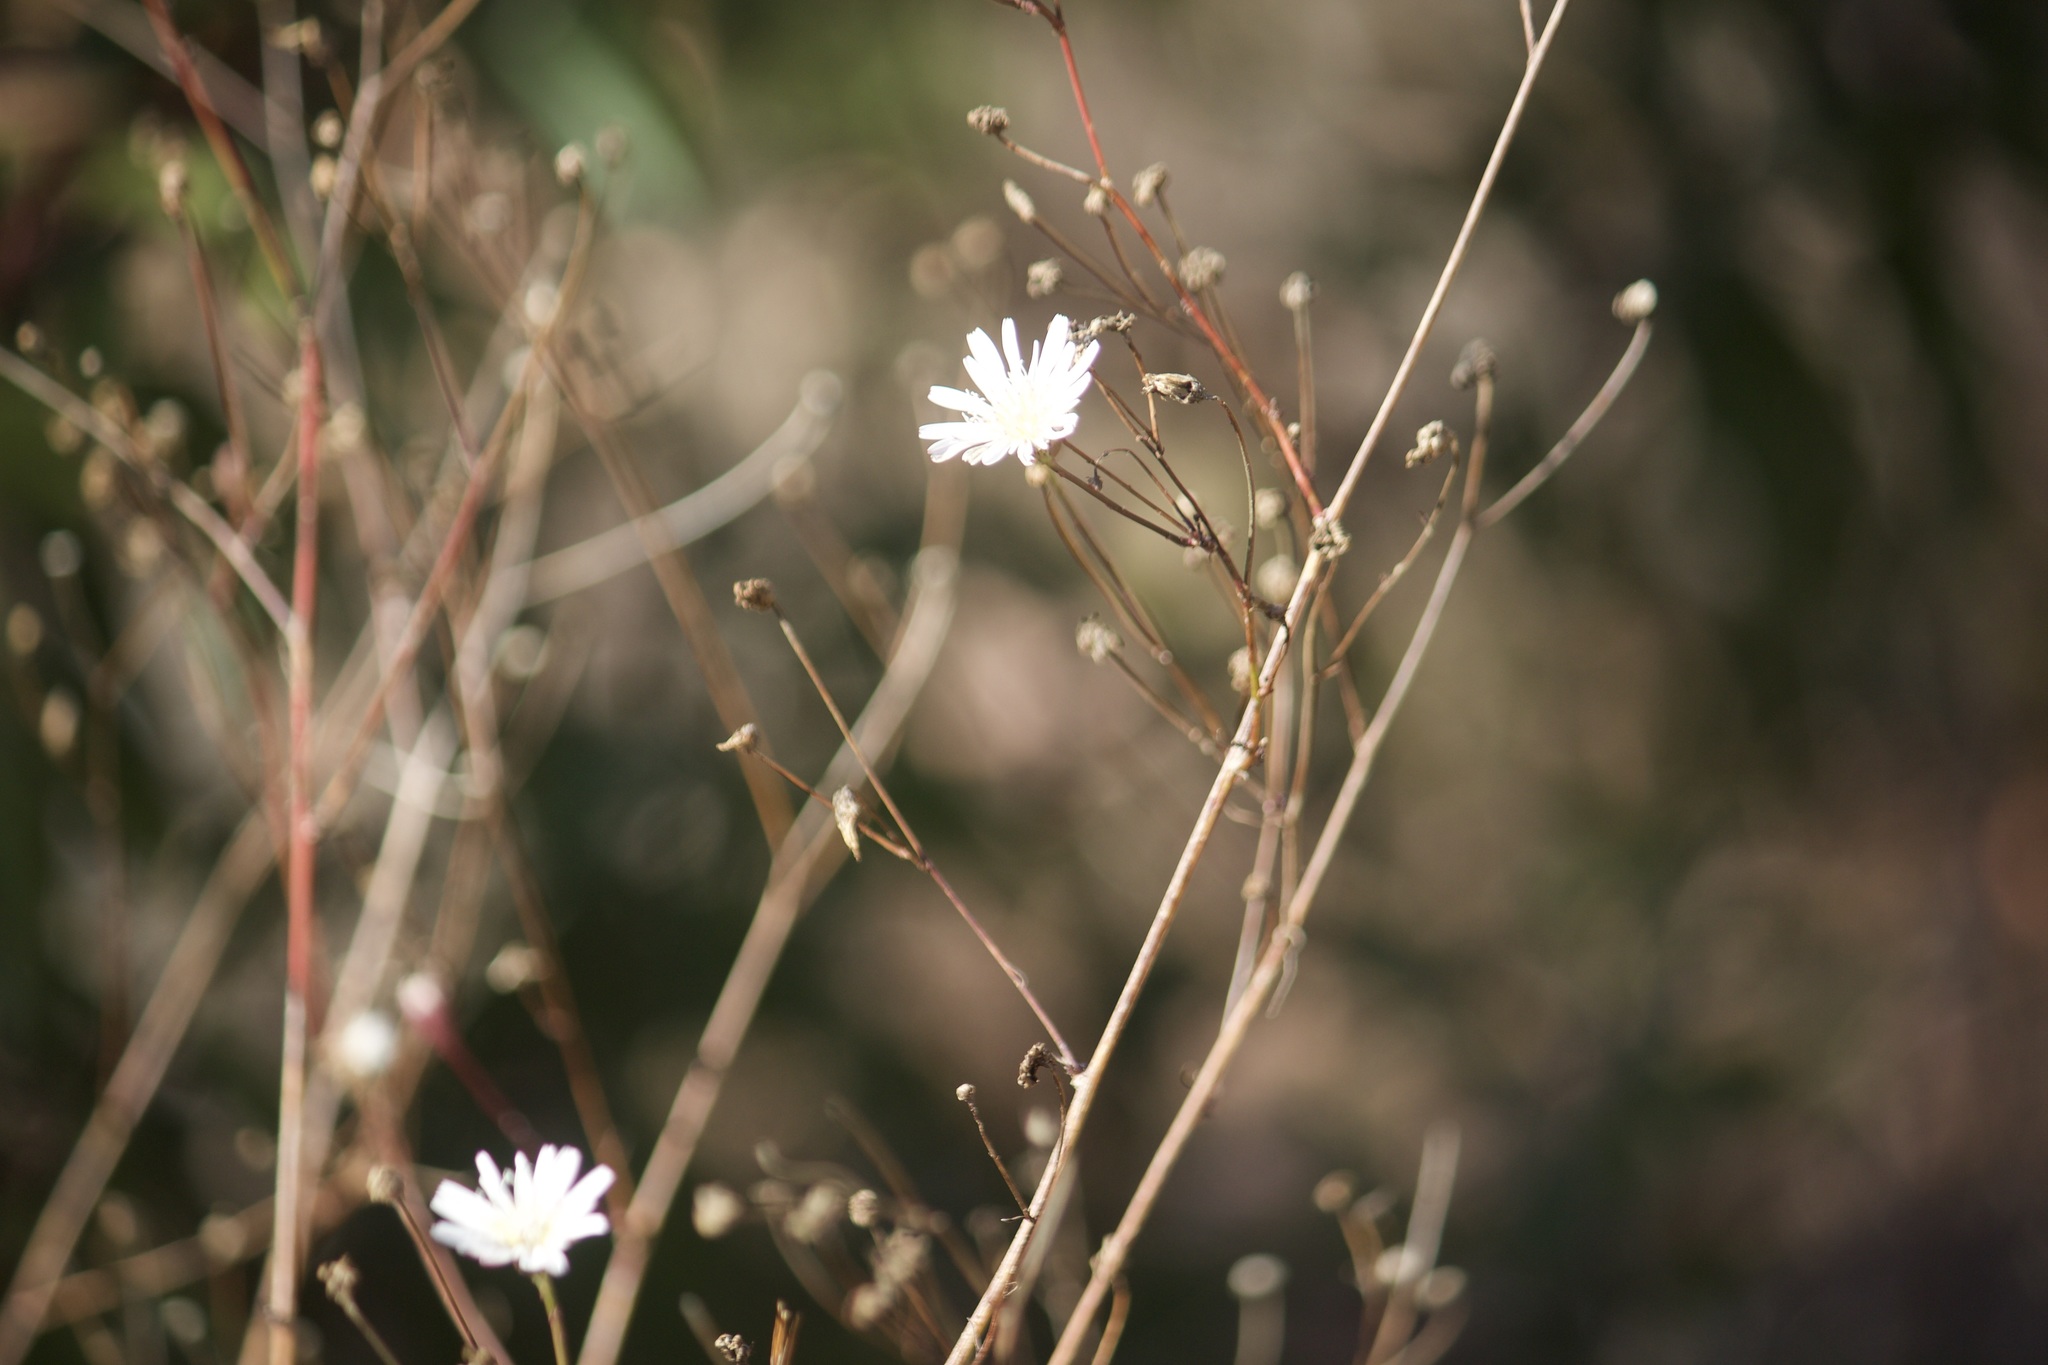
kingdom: Plantae
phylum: Tracheophyta
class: Magnoliopsida
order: Asterales
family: Asteraceae
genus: Malacothrix
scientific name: Malacothrix saxatilis
